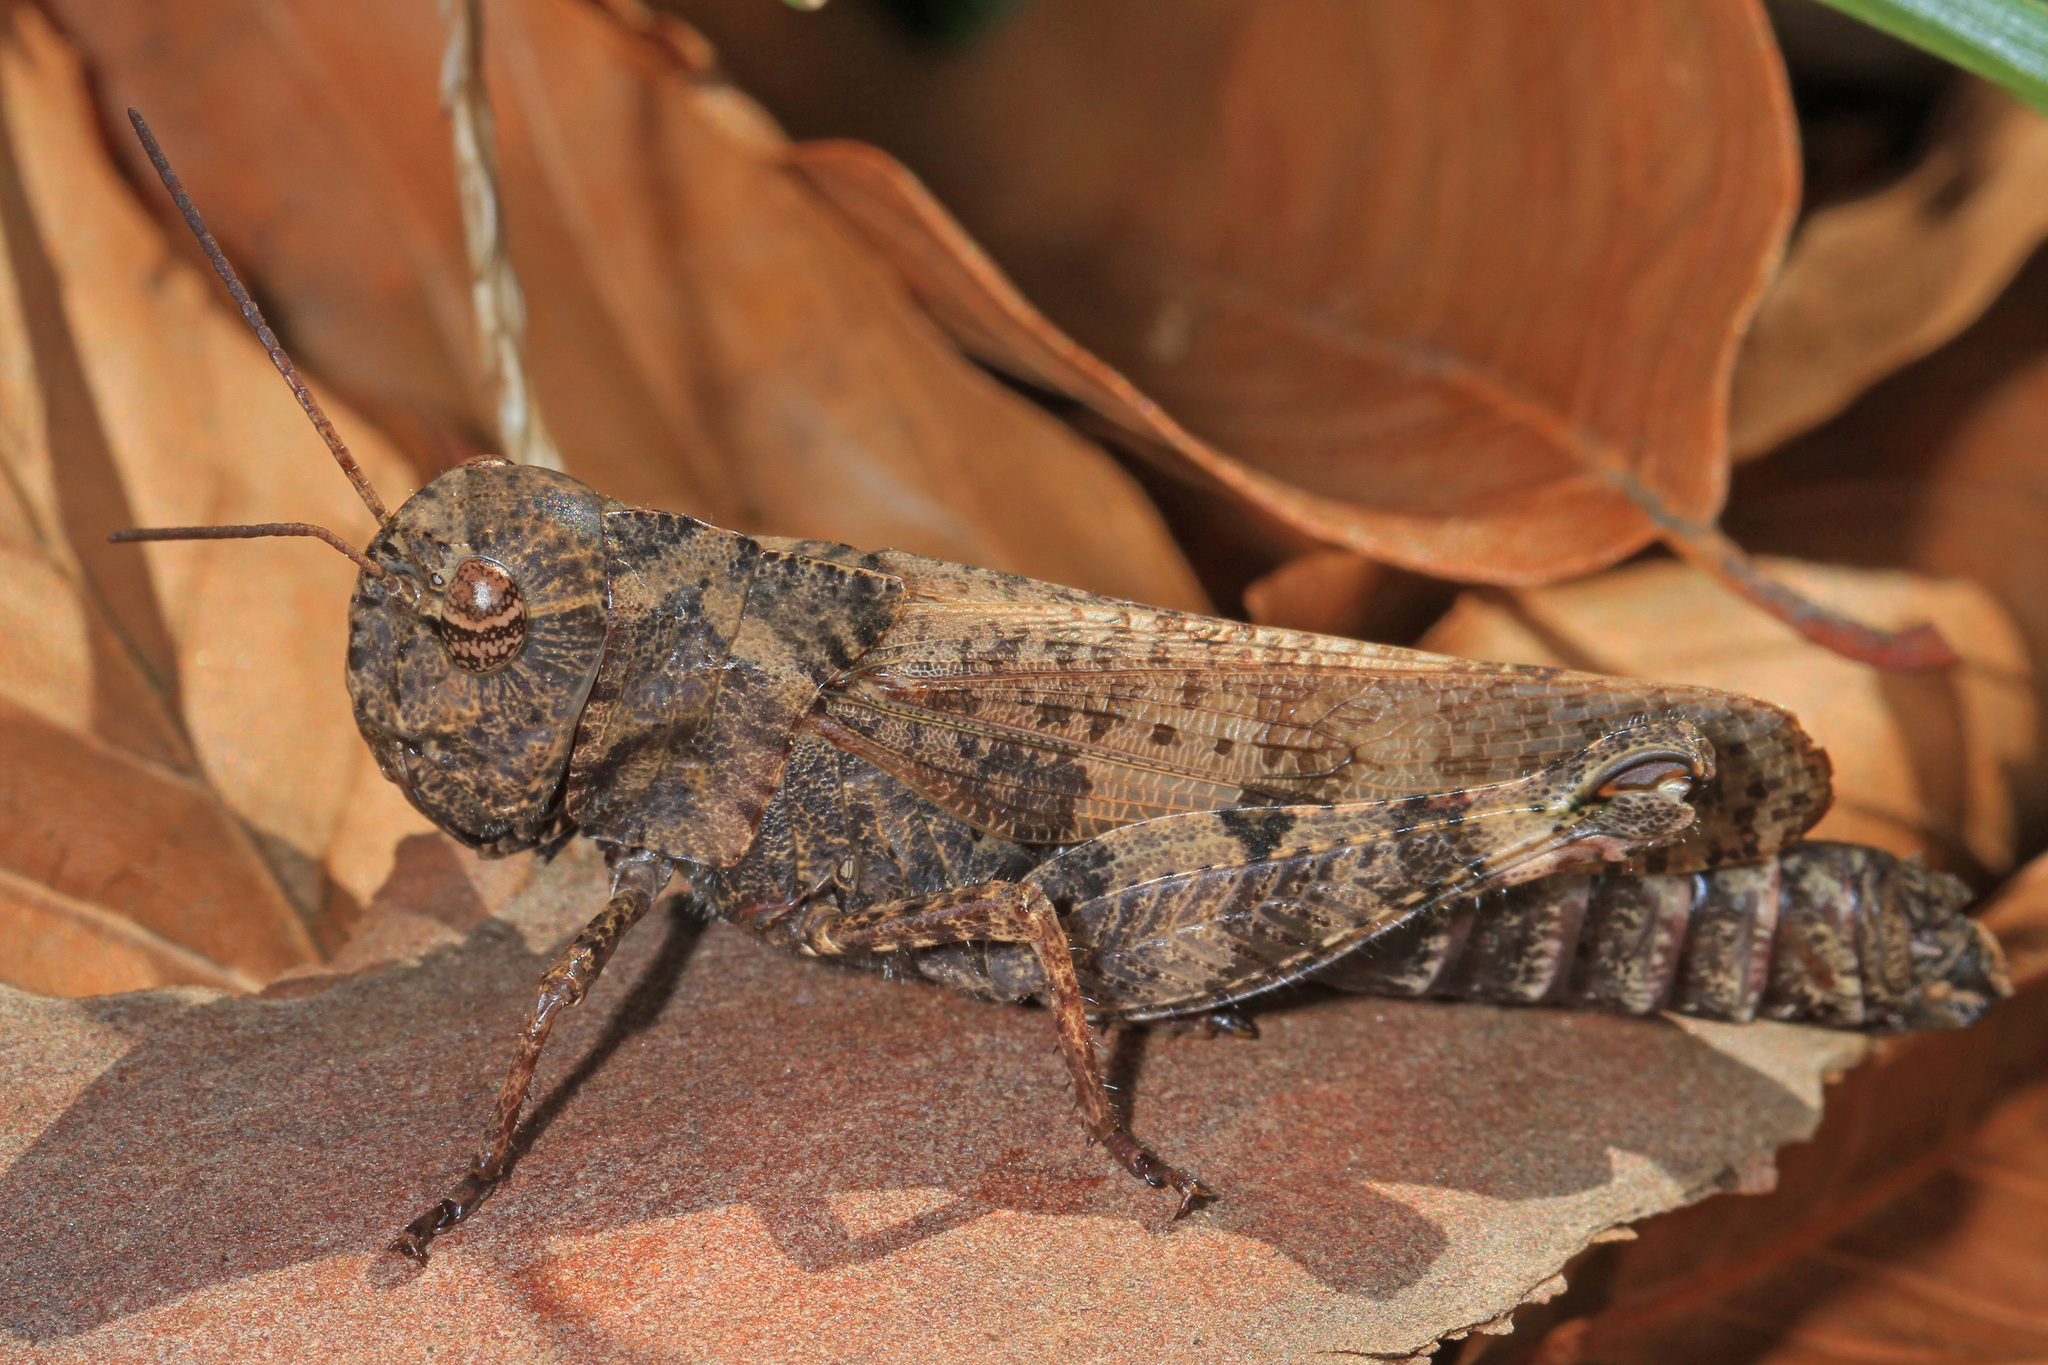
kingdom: Animalia
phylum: Arthropoda
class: Insecta
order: Orthoptera
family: Acrididae
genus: Encoptolophus
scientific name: Encoptolophus sordidus
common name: Dusky grasshopper
